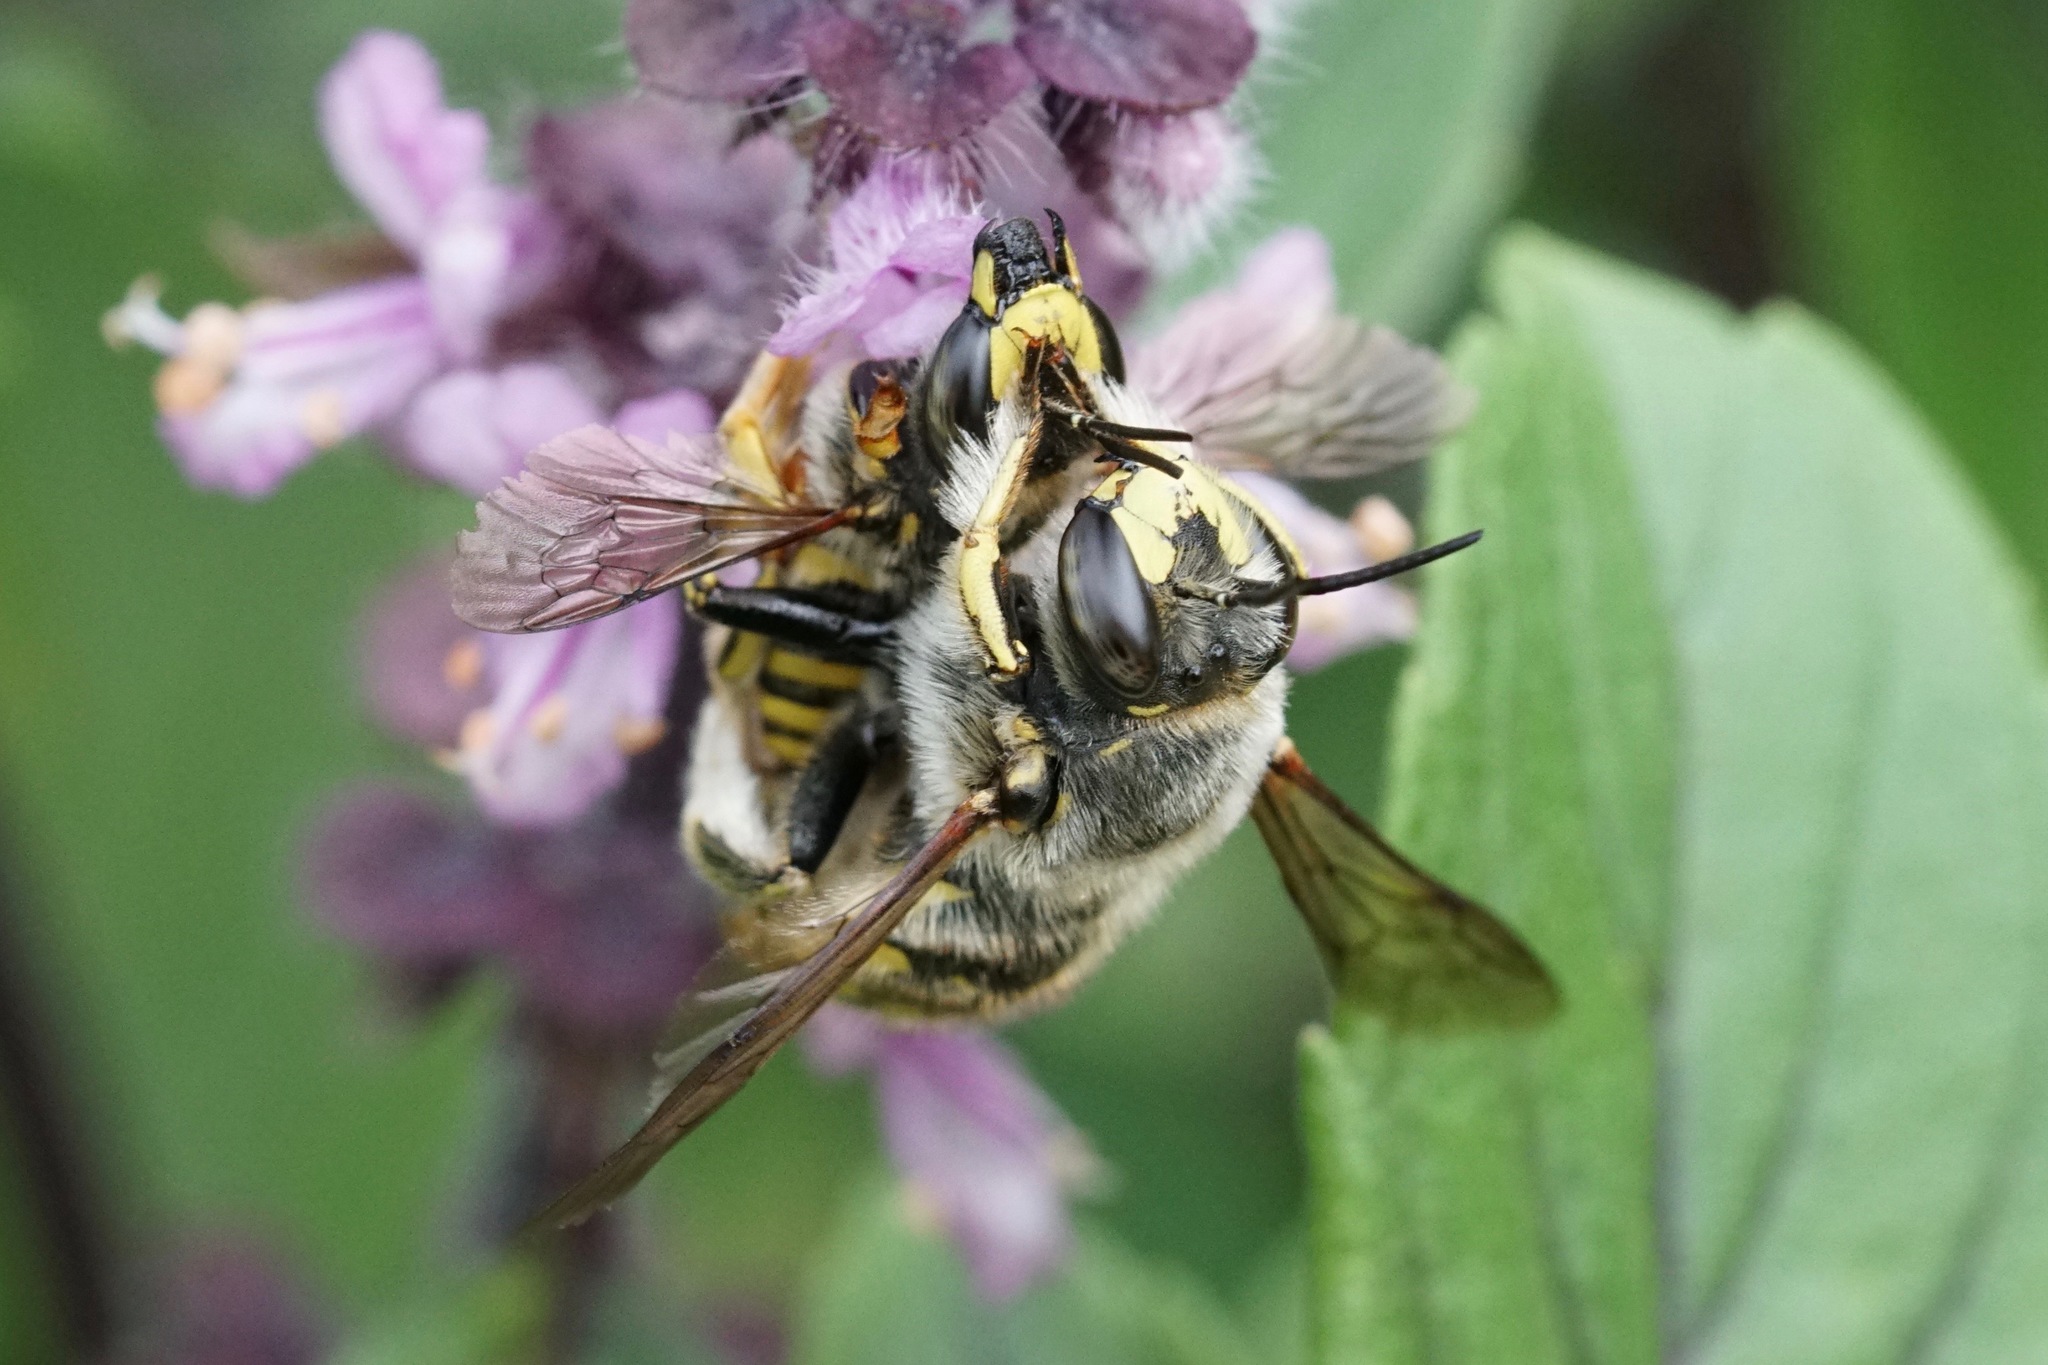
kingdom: Animalia
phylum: Arthropoda
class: Insecta
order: Hymenoptera
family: Megachilidae
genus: Anthidium
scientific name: Anthidium manicatum
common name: Wool carder bee
